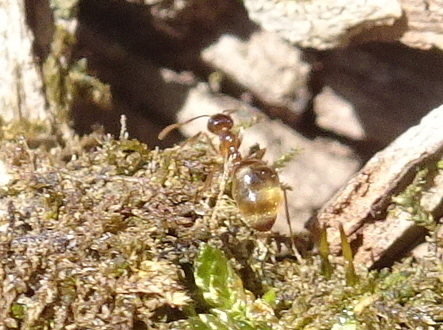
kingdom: Animalia
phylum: Arthropoda
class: Insecta
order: Hymenoptera
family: Formicidae
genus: Prenolepis
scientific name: Prenolepis imparis
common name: Small honey ant
